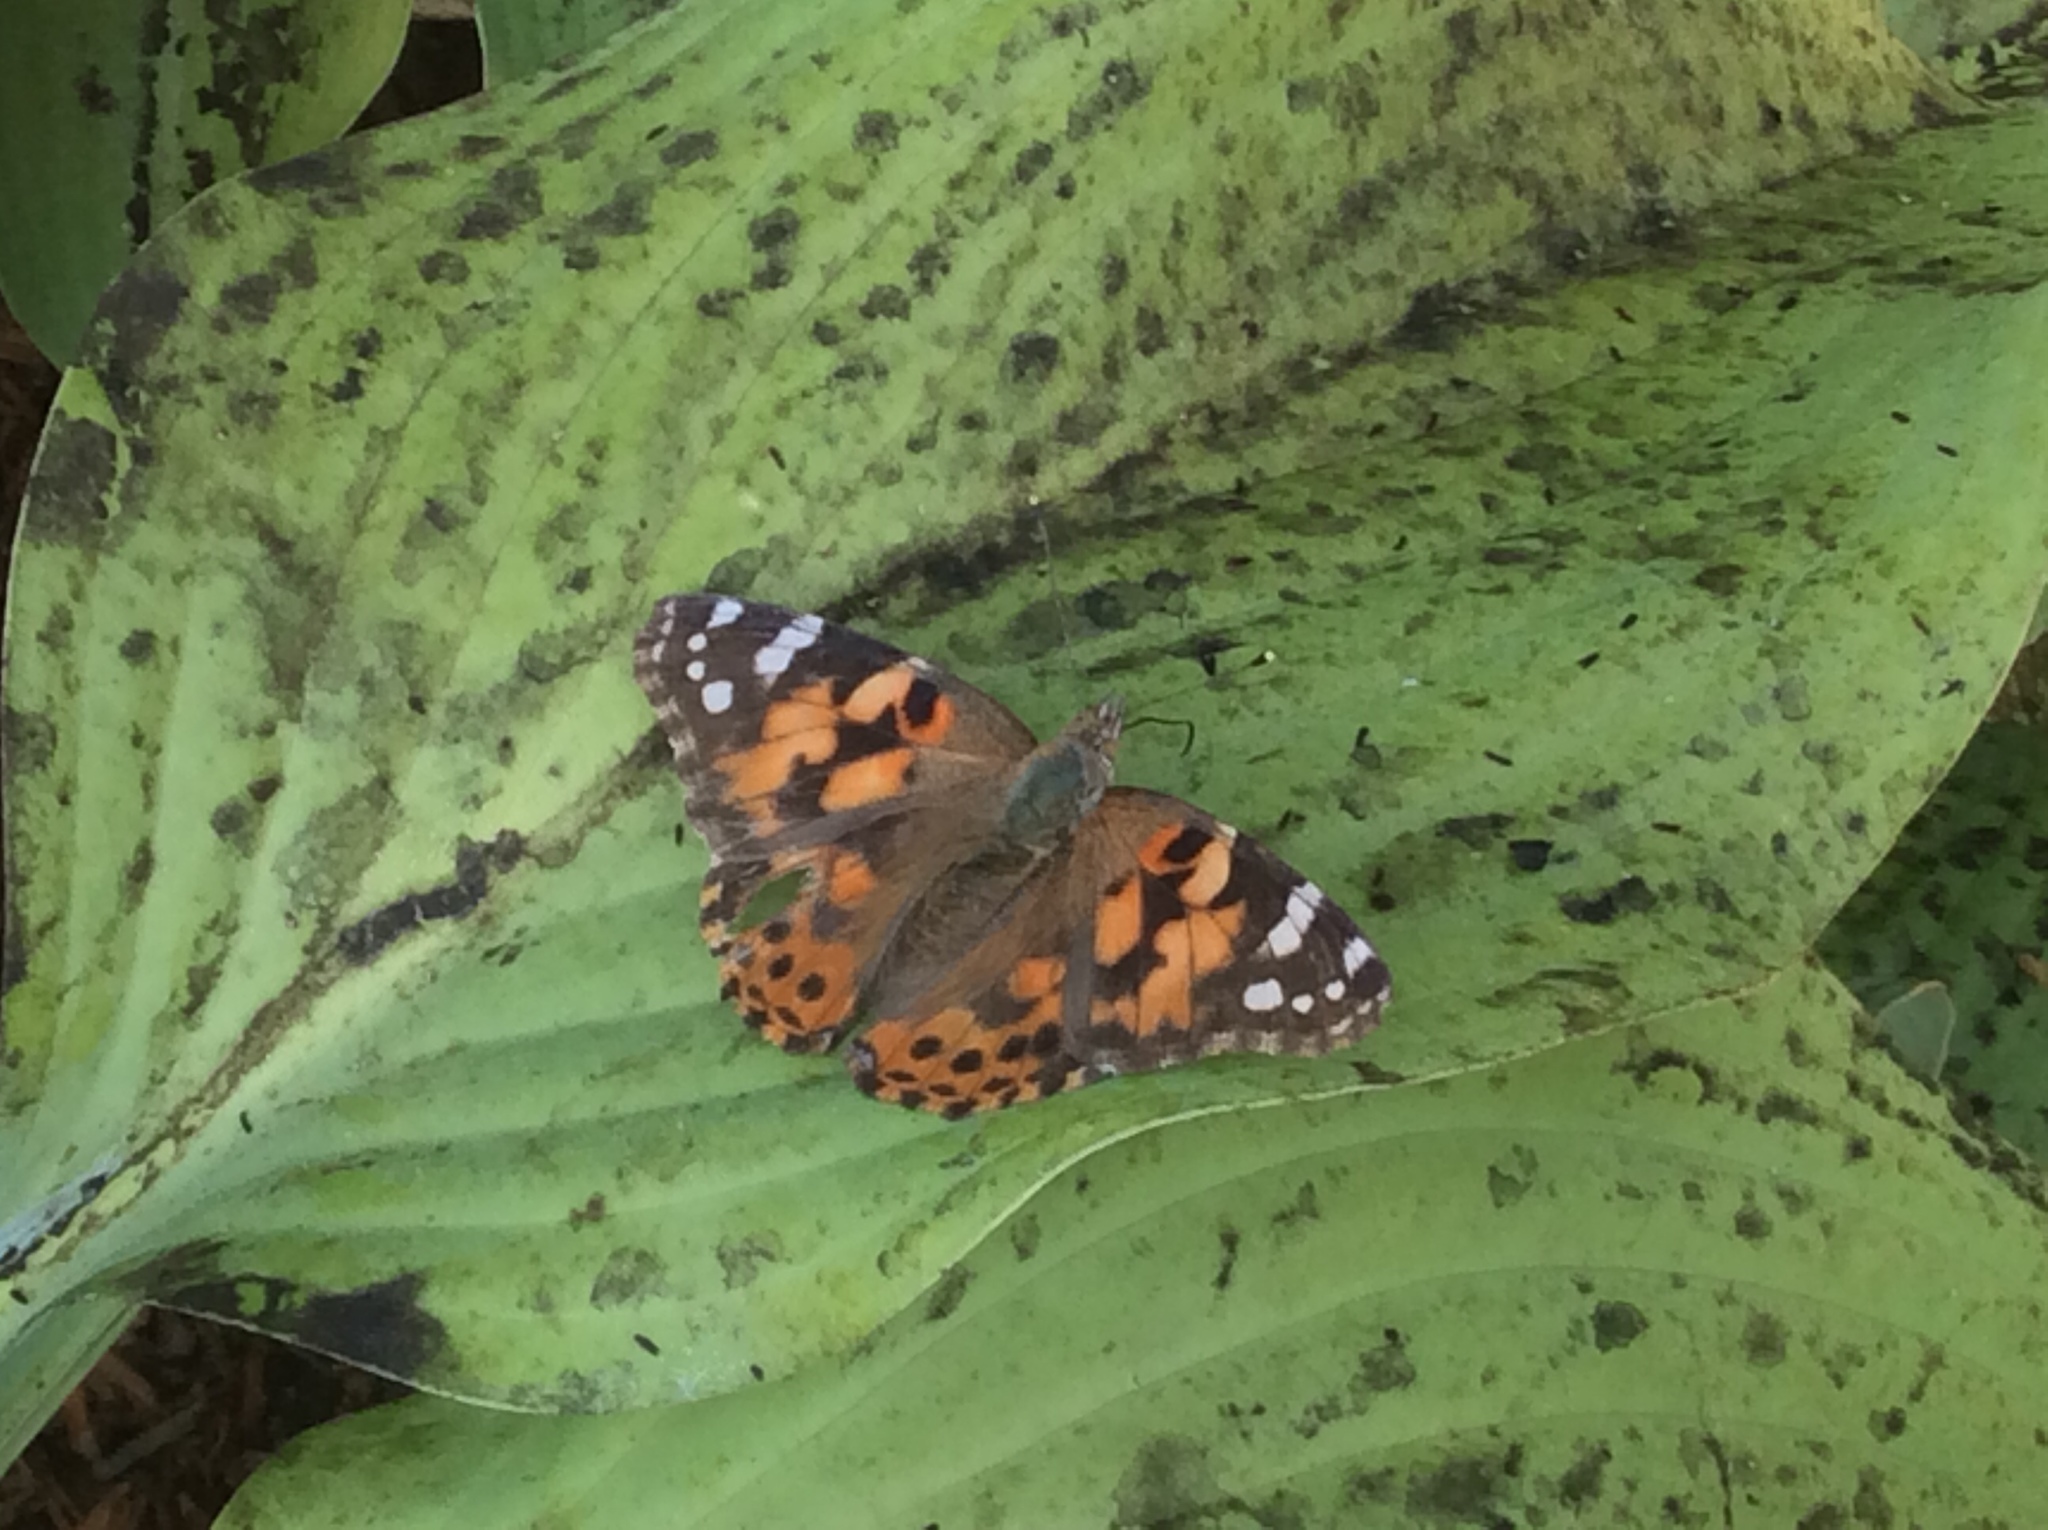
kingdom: Animalia
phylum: Arthropoda
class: Insecta
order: Lepidoptera
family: Nymphalidae
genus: Vanessa
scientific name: Vanessa cardui
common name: Painted lady
